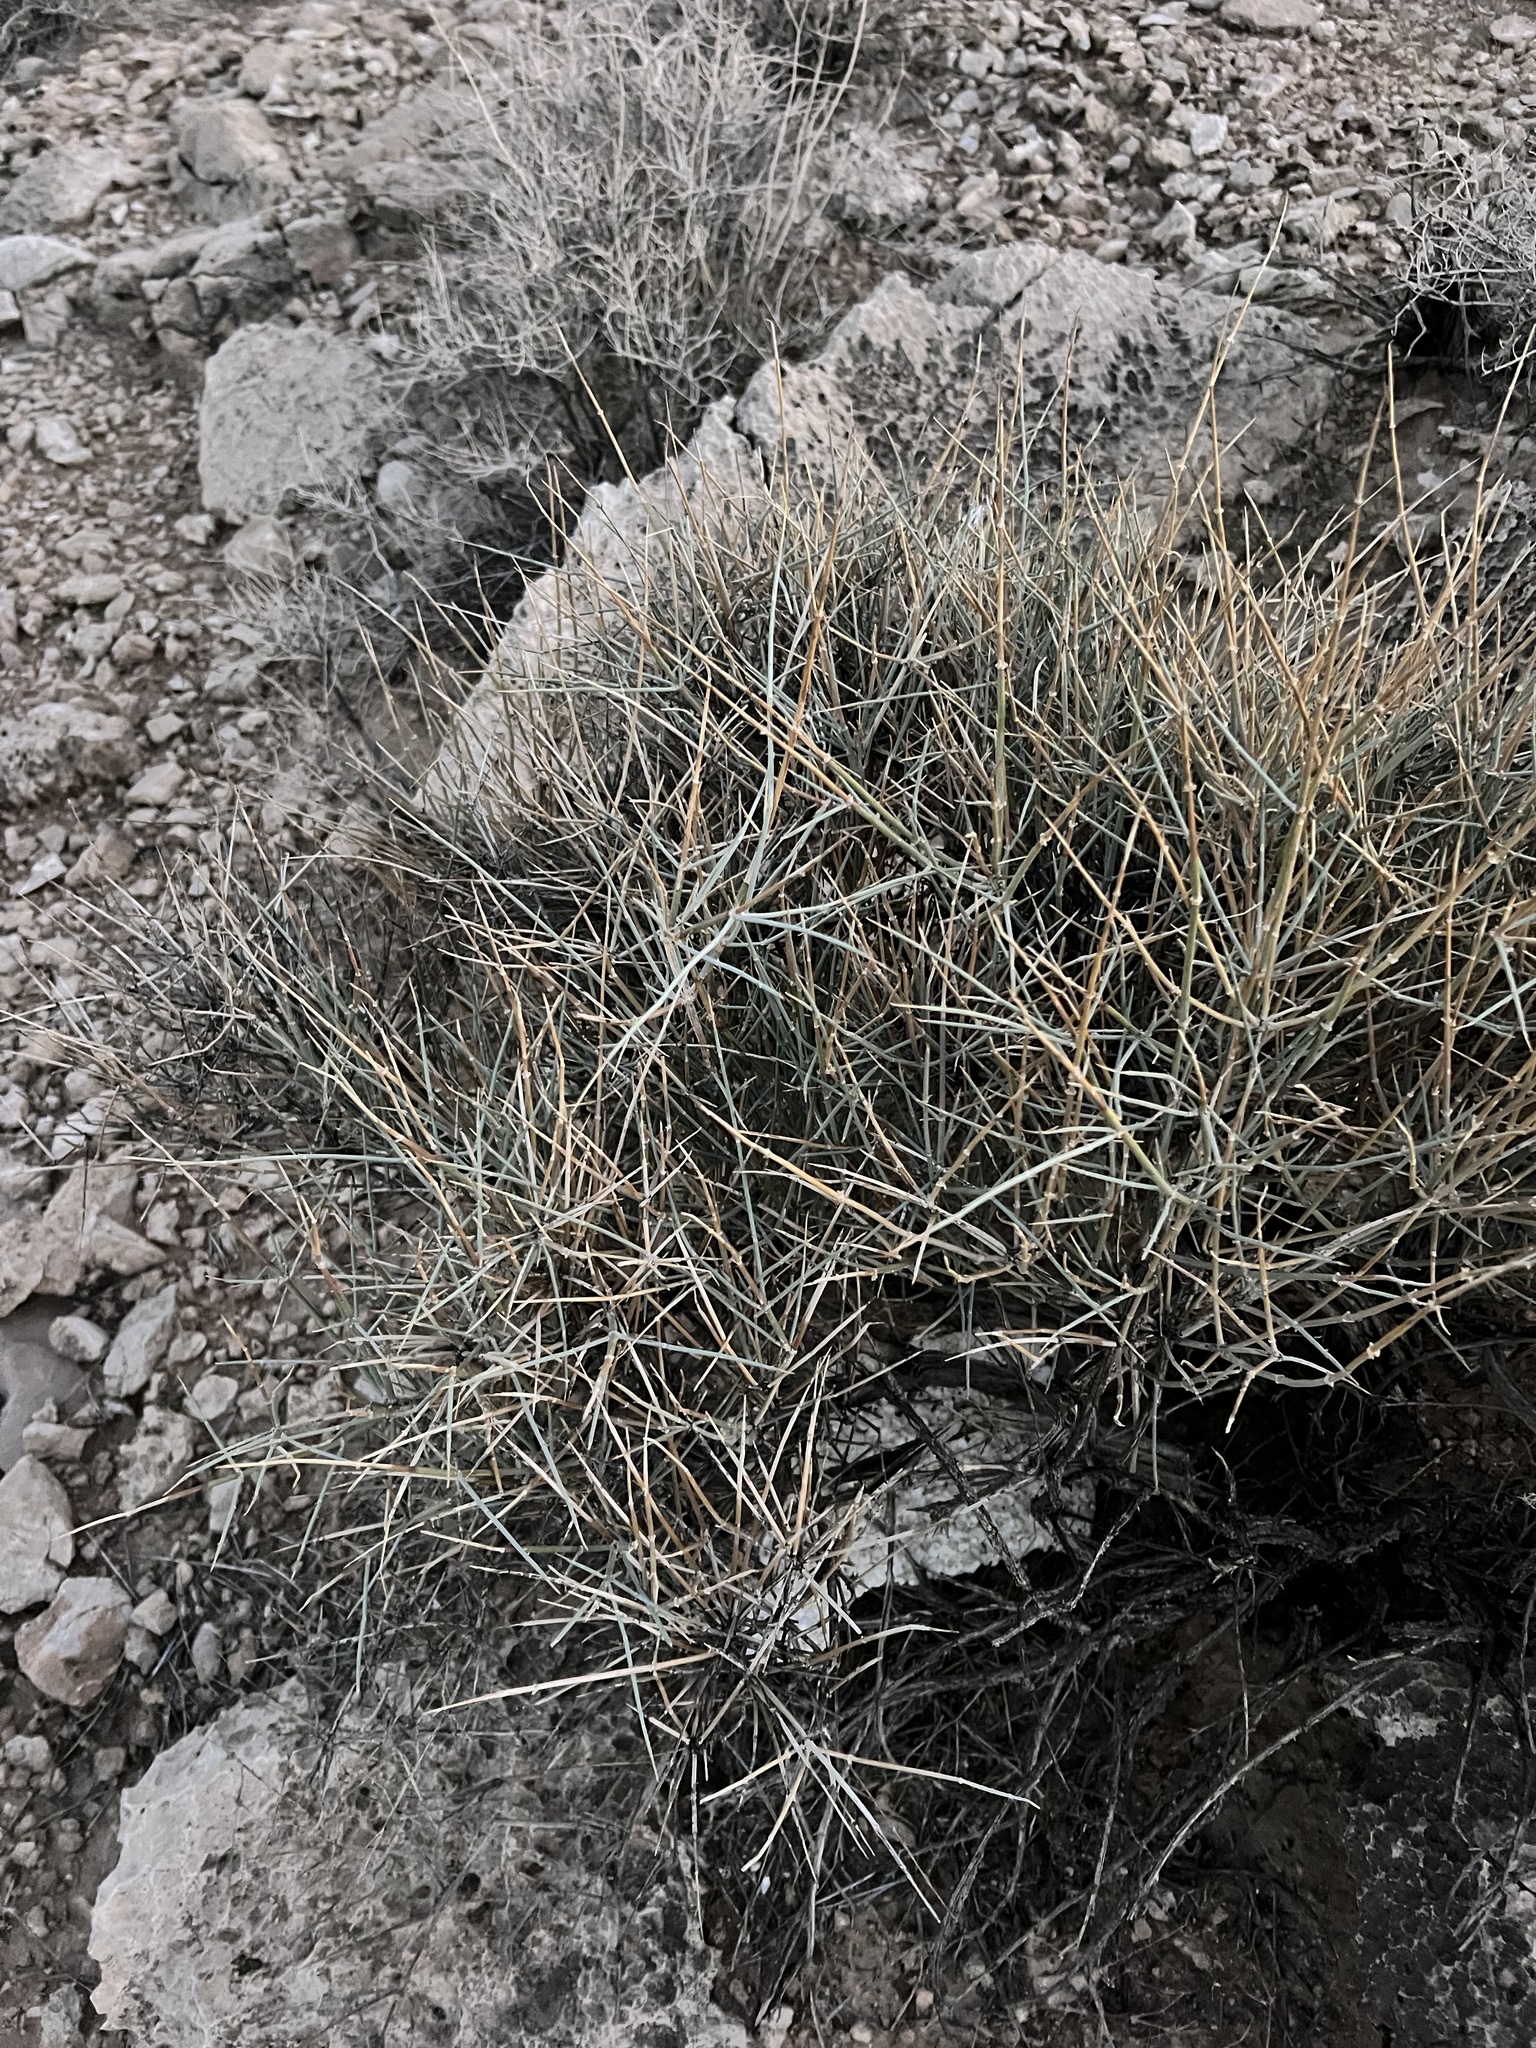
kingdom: Plantae
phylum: Tracheophyta
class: Gnetopsida
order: Ephedrales
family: Ephedraceae
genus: Ephedra
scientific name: Ephedra nevadensis
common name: Gray ephedra
